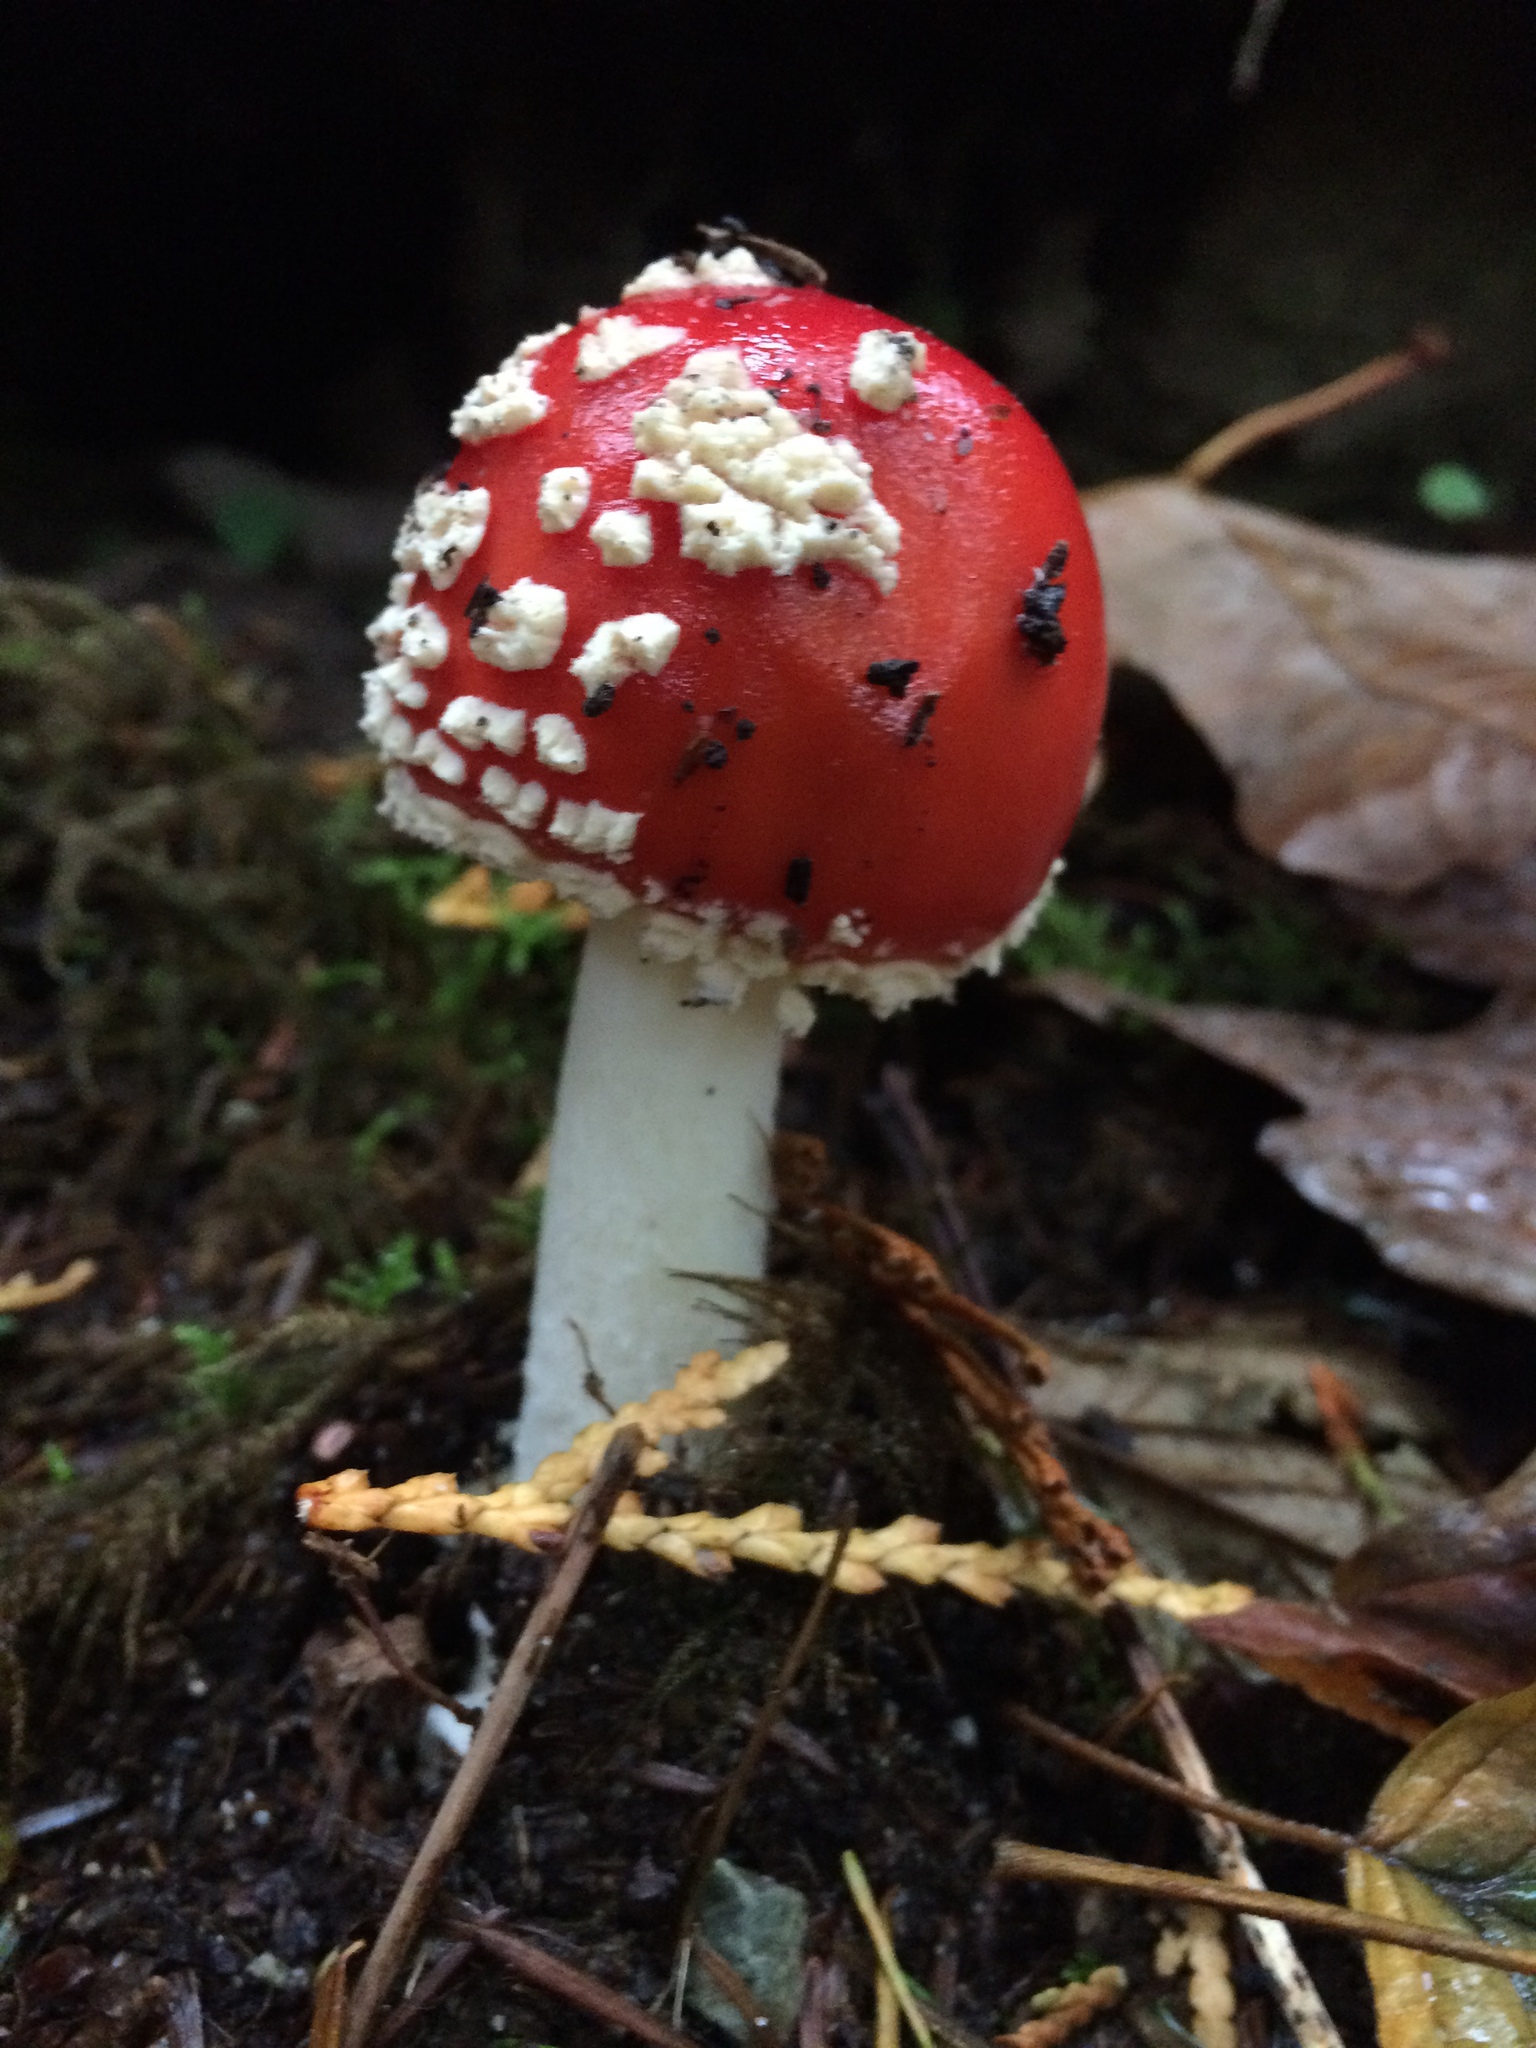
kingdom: Fungi
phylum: Basidiomycota
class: Agaricomycetes
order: Agaricales
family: Amanitaceae
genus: Amanita
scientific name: Amanita muscaria
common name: Fly agaric
